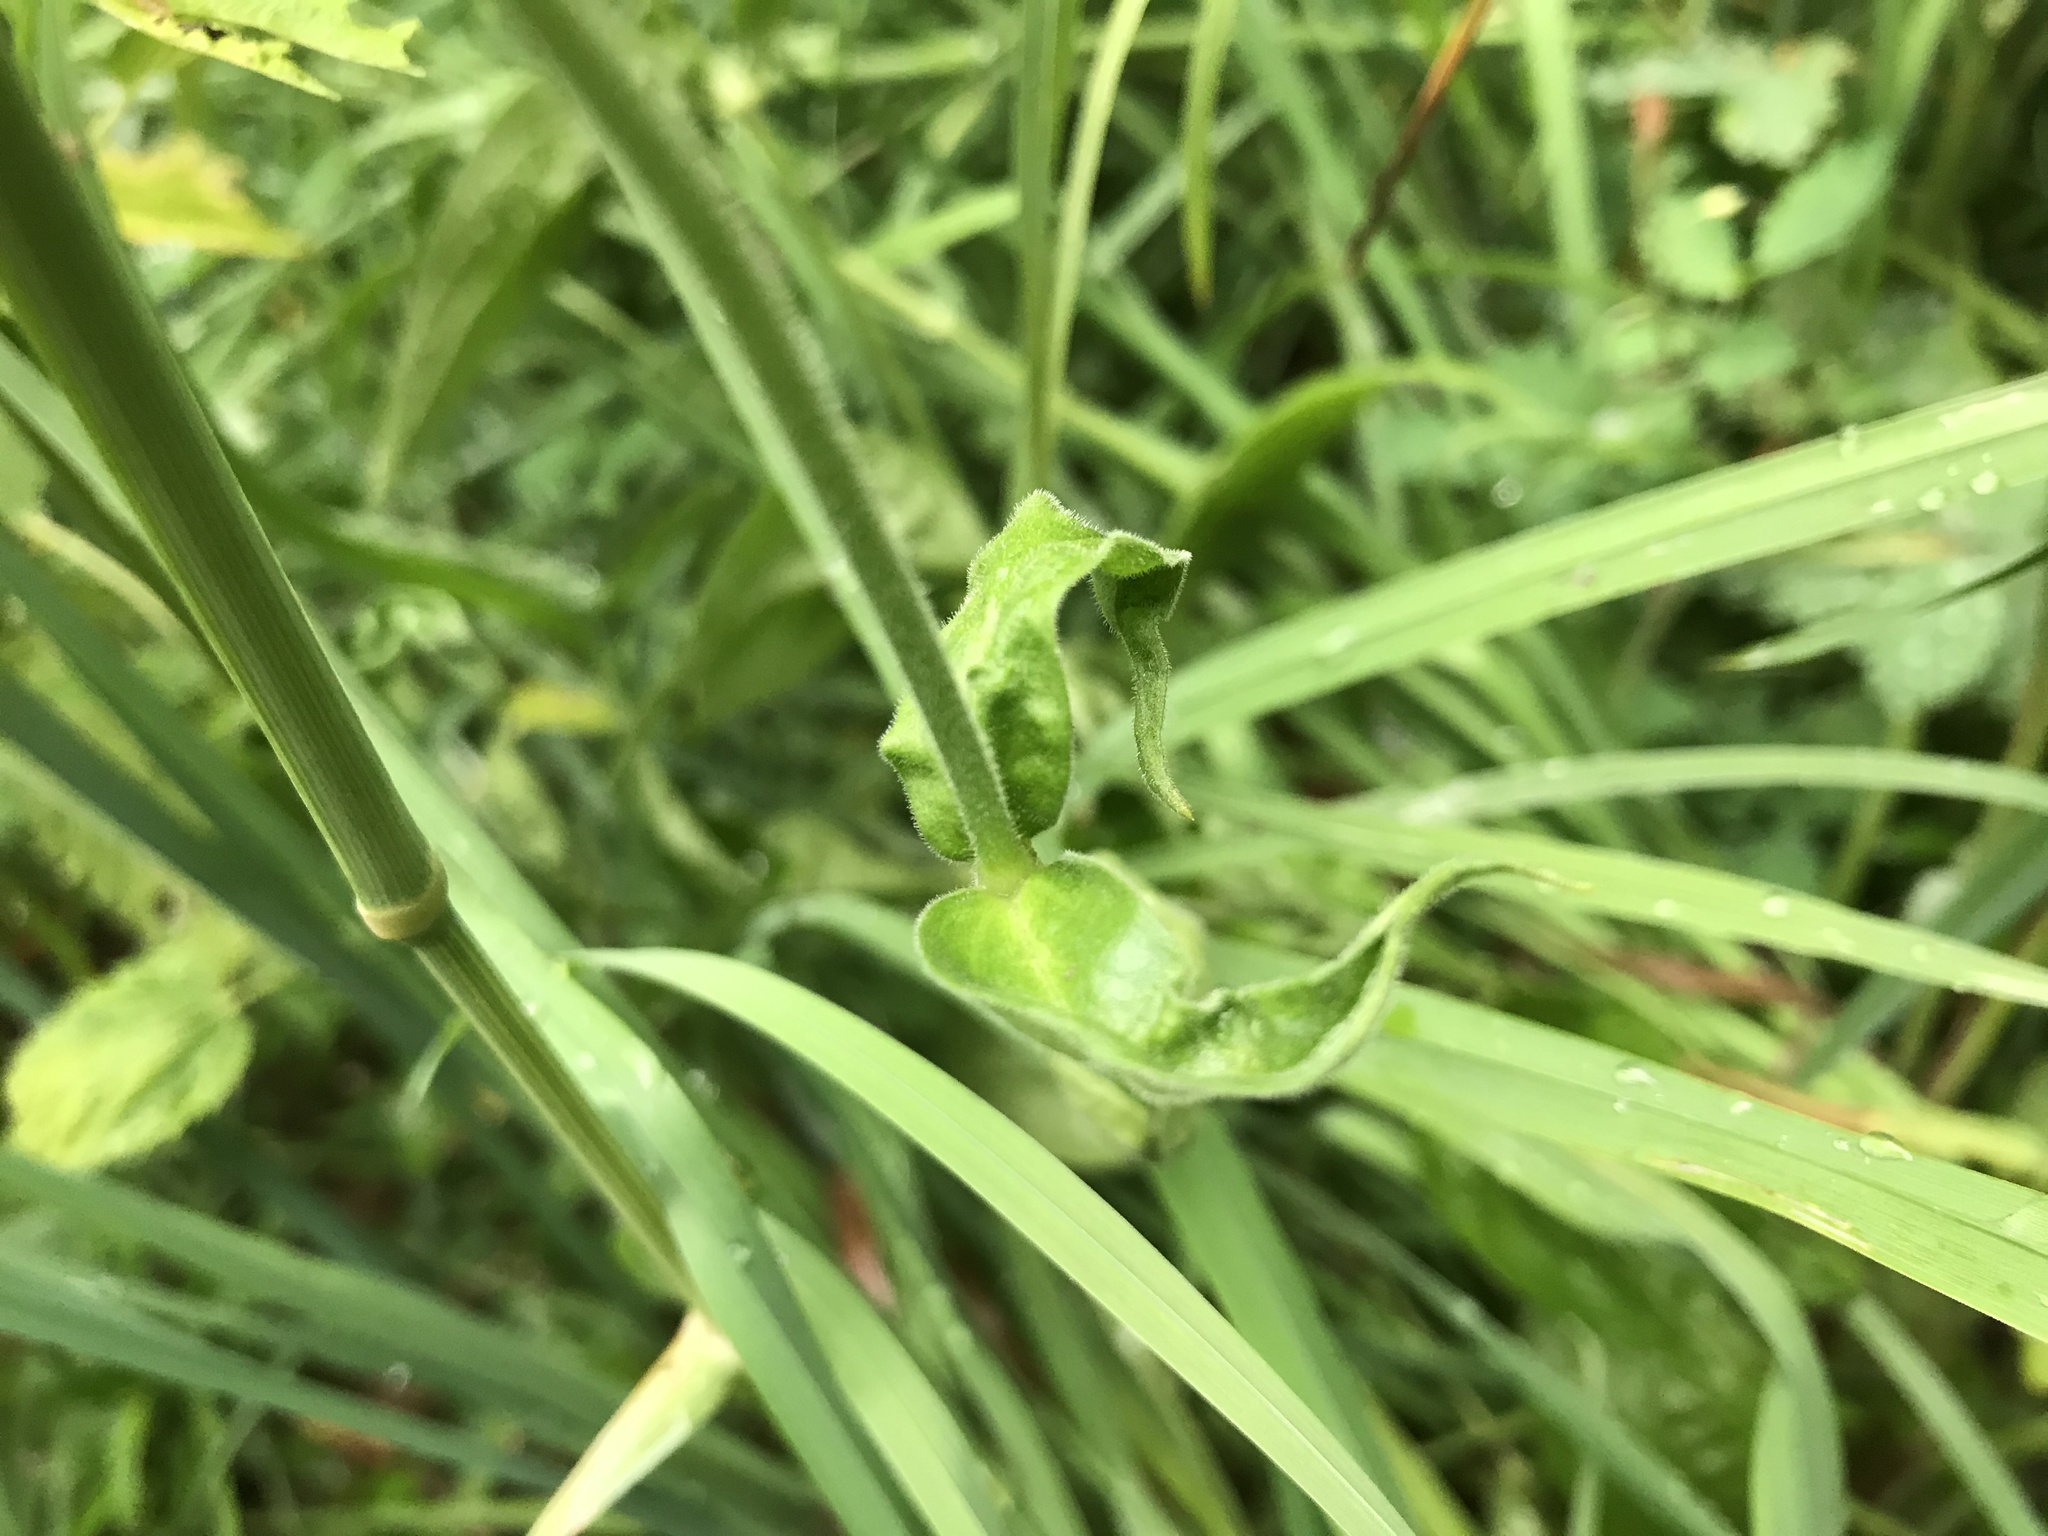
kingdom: Plantae
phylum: Tracheophyta
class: Magnoliopsida
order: Caryophyllales
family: Caryophyllaceae
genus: Silene
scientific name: Silene latifolia
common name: White campion
